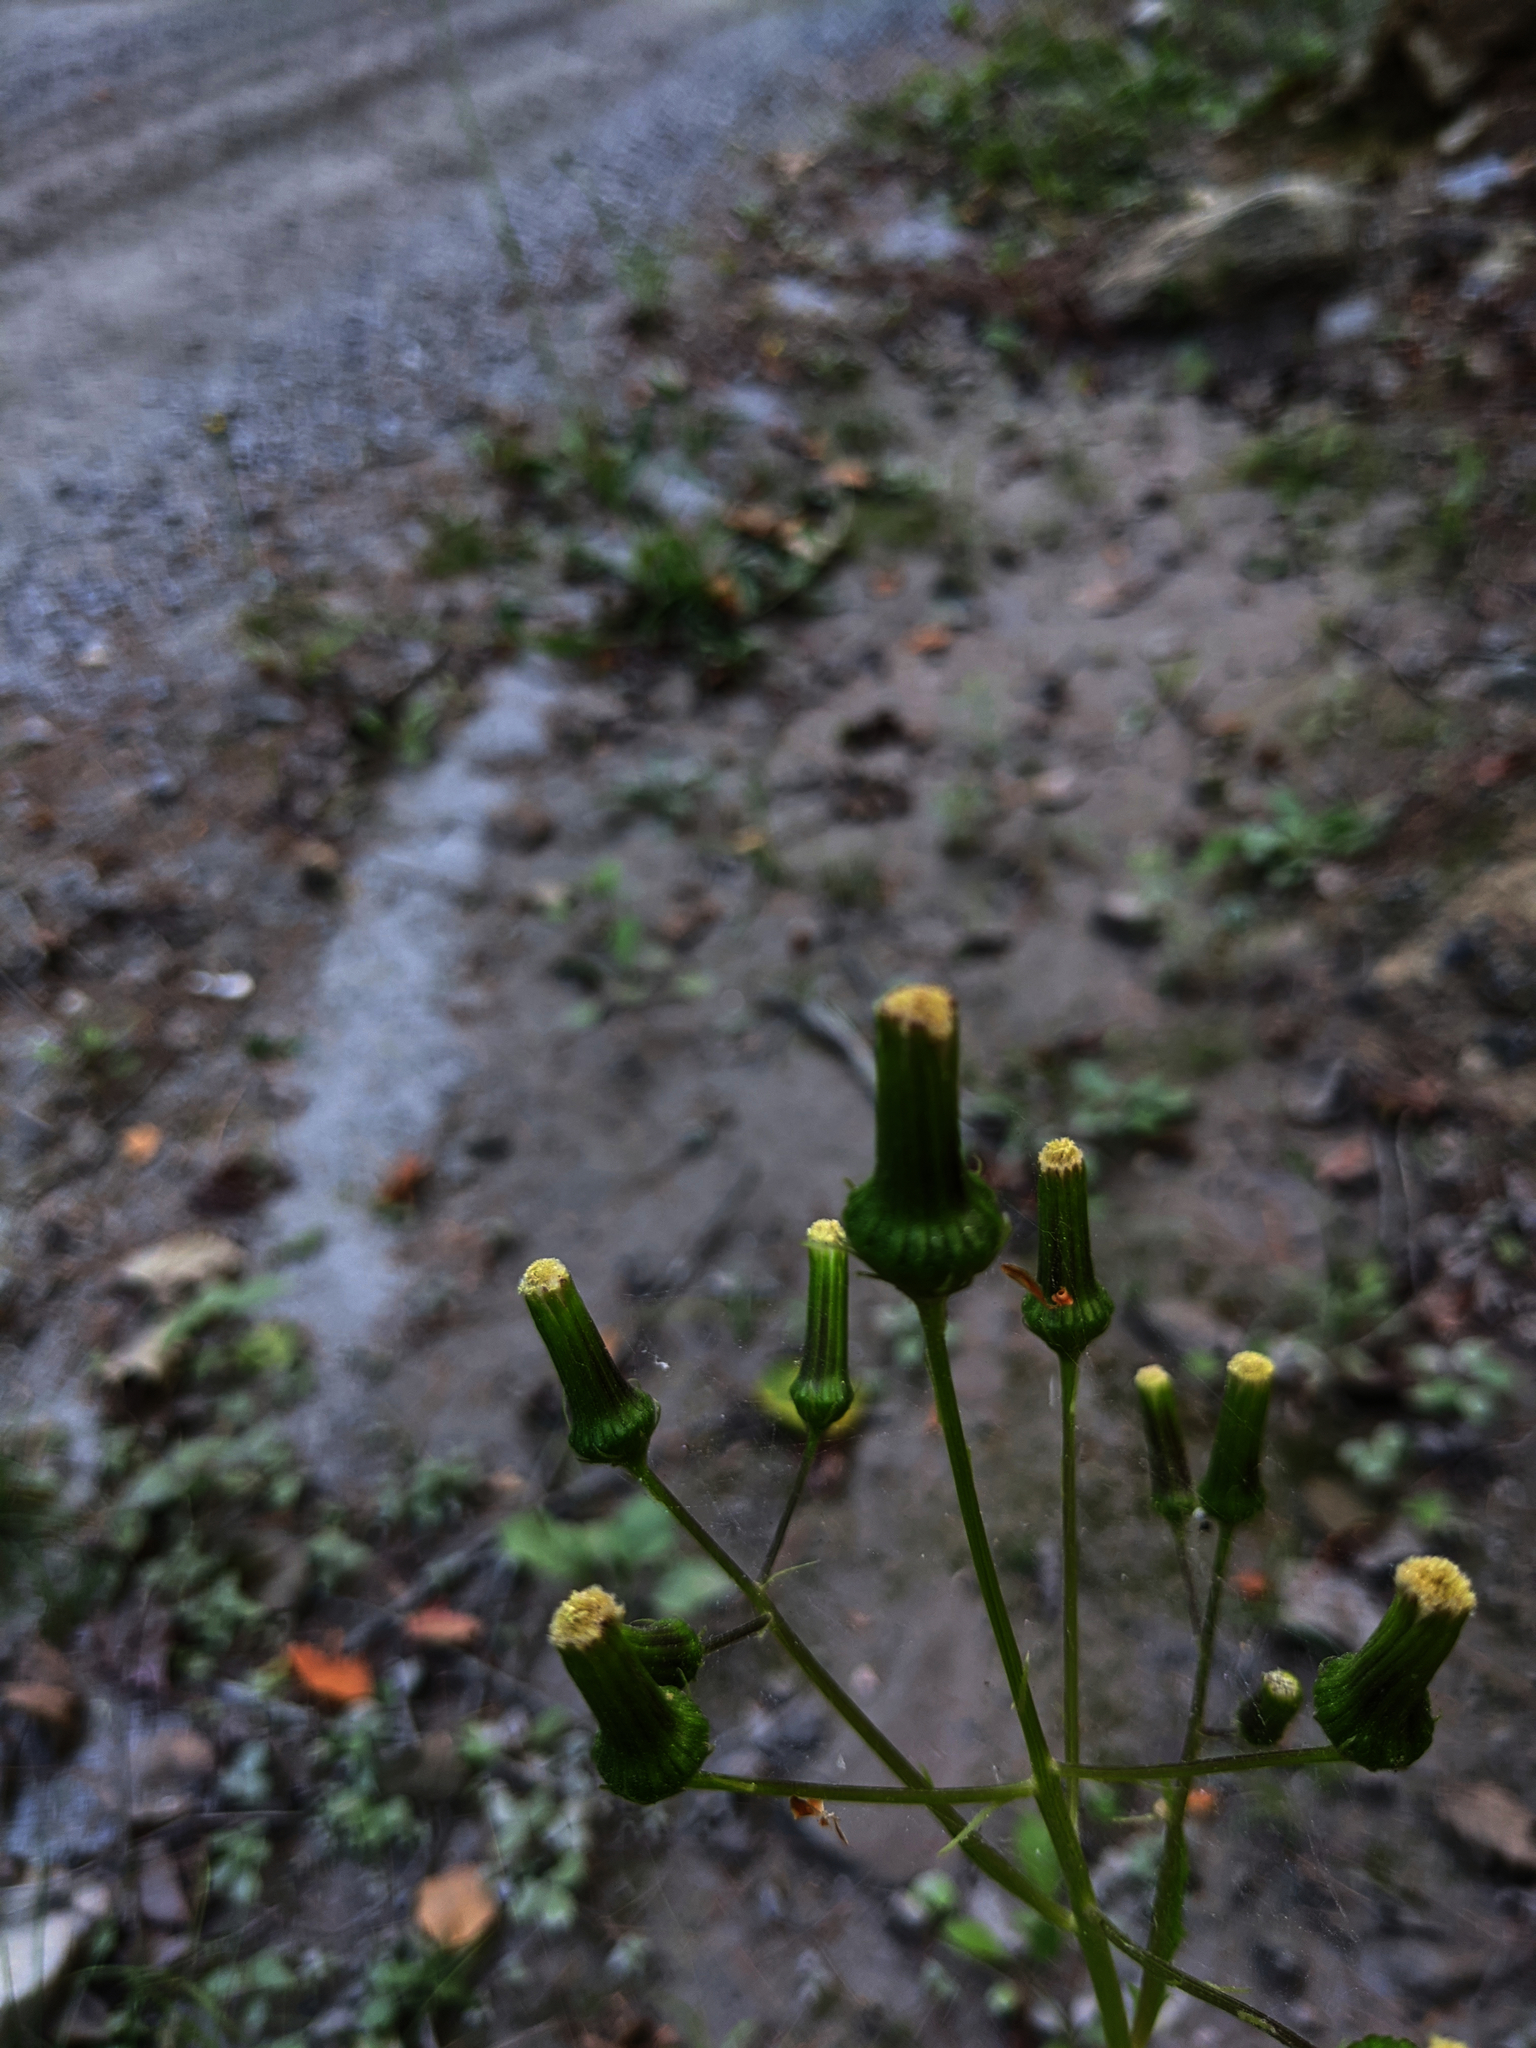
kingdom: Plantae
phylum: Tracheophyta
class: Magnoliopsida
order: Asterales
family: Asteraceae
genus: Erechtites
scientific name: Erechtites hieraciifolius
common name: American burnweed
